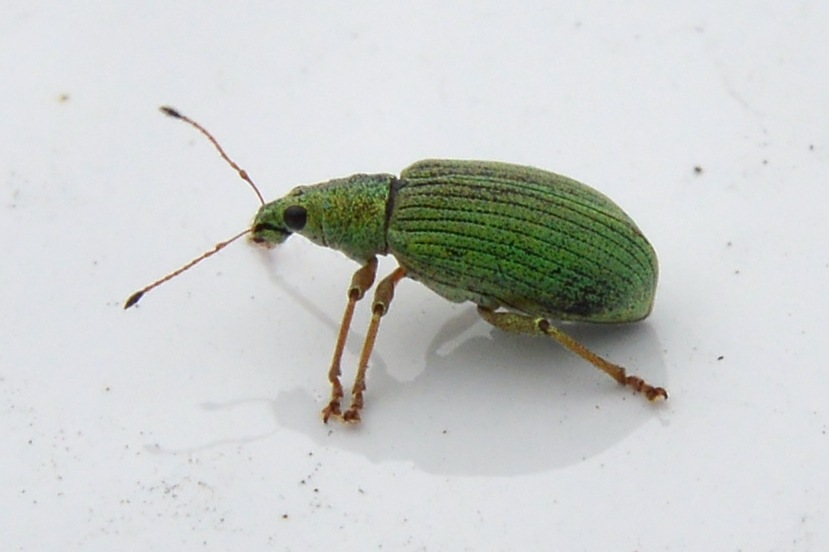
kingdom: Animalia
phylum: Arthropoda
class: Insecta
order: Coleoptera
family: Curculionidae
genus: Polydrusus
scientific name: Polydrusus formosus
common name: Weevil
